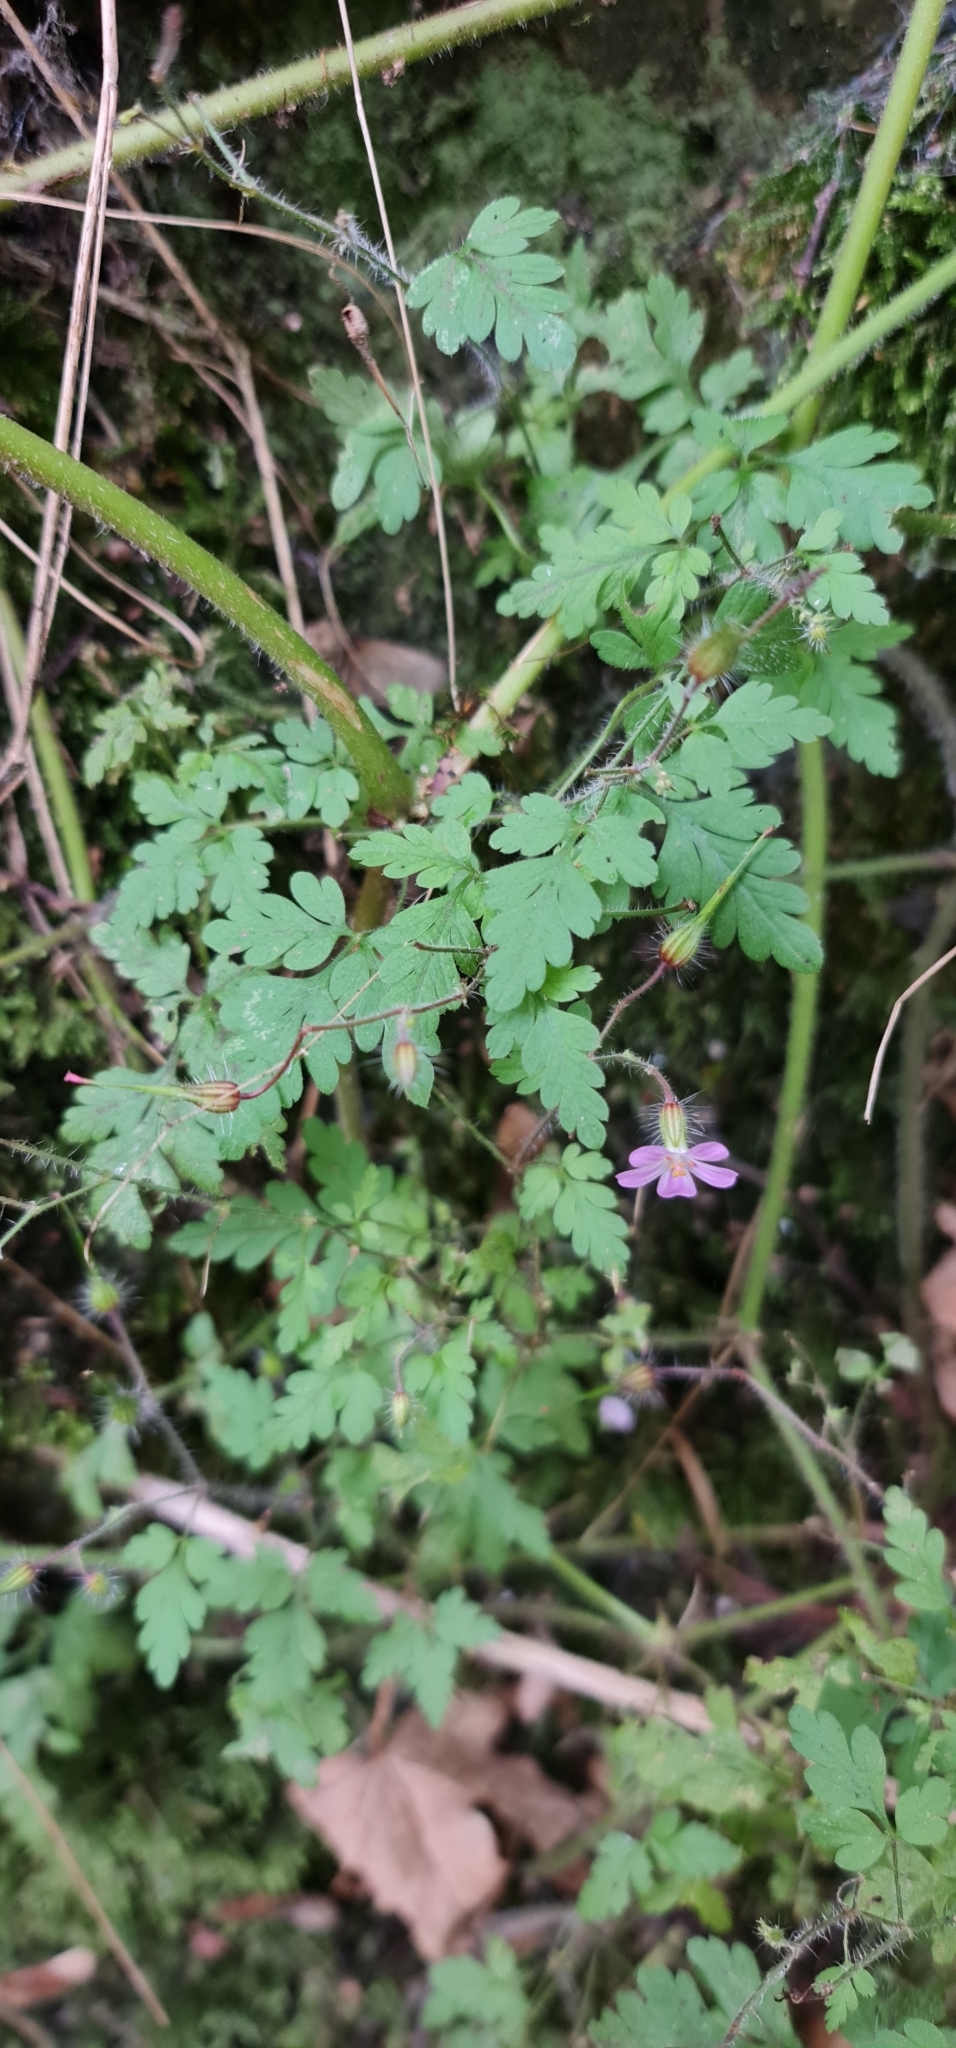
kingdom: Plantae
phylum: Tracheophyta
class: Magnoliopsida
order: Geraniales
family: Geraniaceae
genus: Geranium
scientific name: Geranium robertianum
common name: Herb-robert
